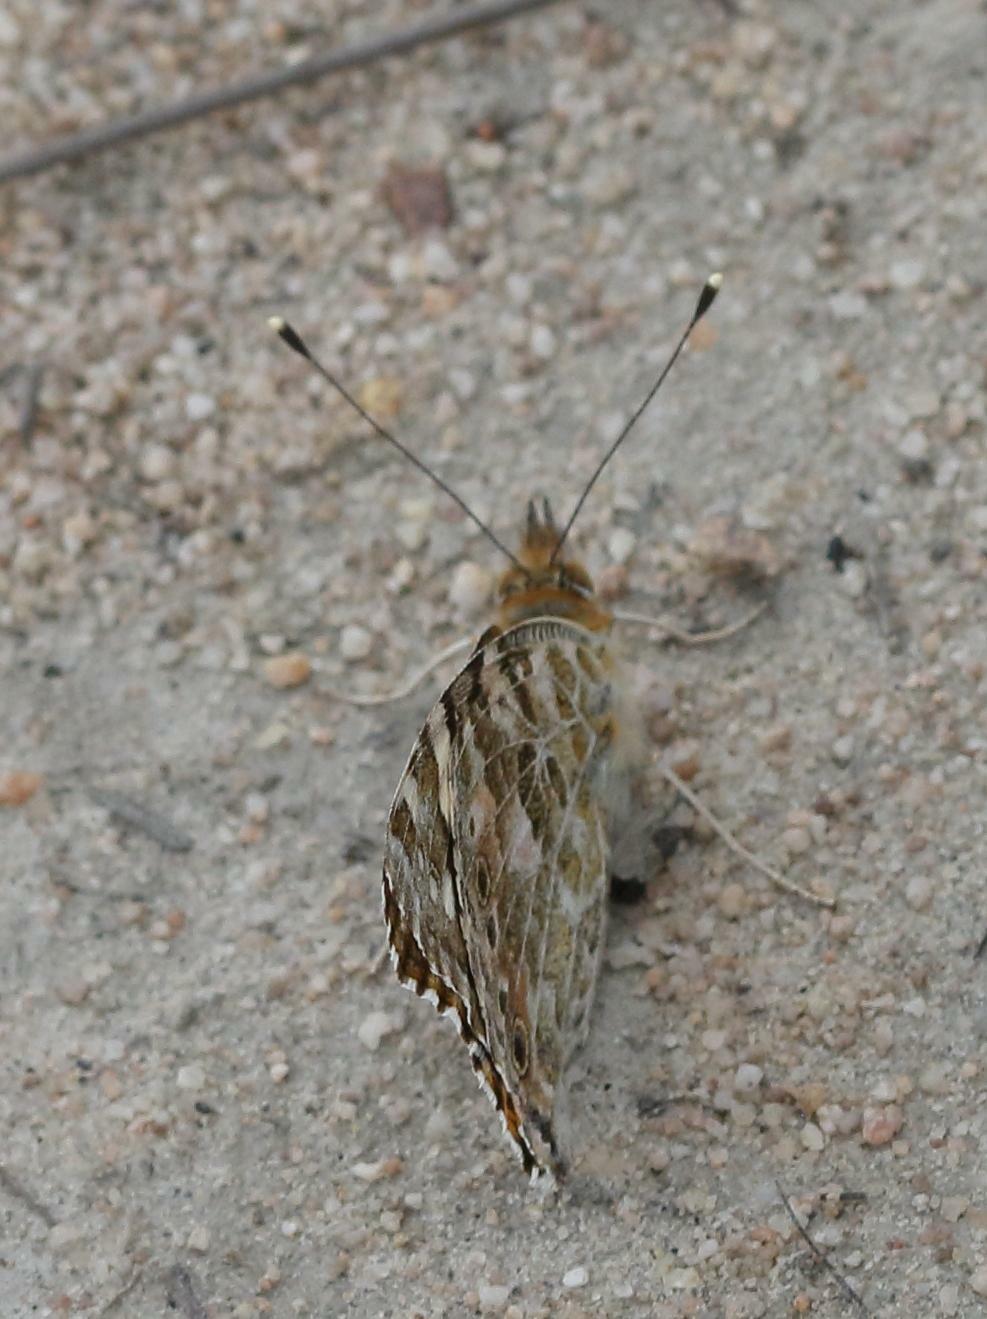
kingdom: Animalia
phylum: Arthropoda
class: Insecta
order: Lepidoptera
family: Nymphalidae
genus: Vanessa
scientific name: Vanessa cardui
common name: Painted lady
